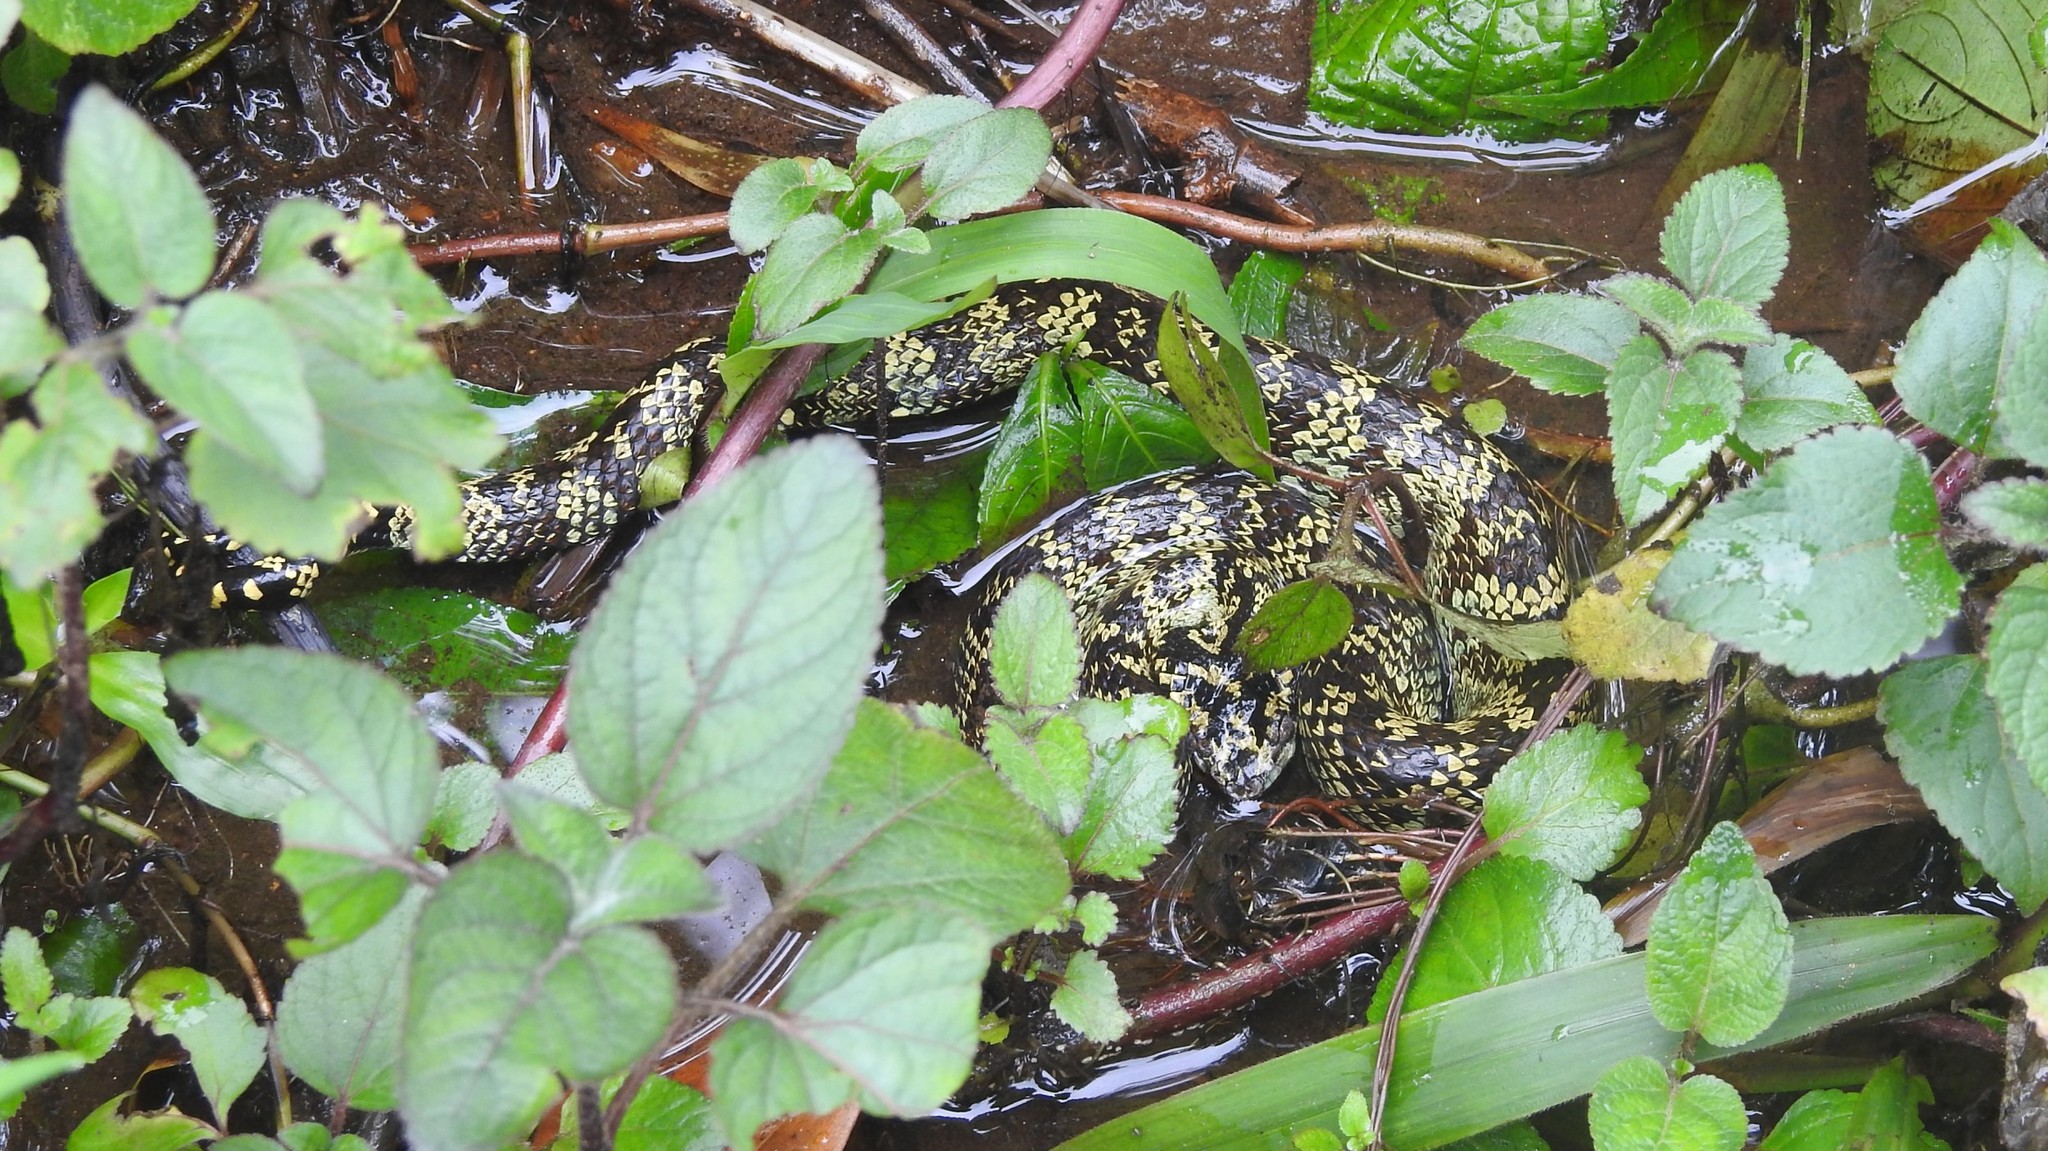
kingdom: Animalia
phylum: Chordata
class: Squamata
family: Viperidae
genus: Craspedocephalus
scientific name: Craspedocephalus anamallensis
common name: Malabarian pit viper
